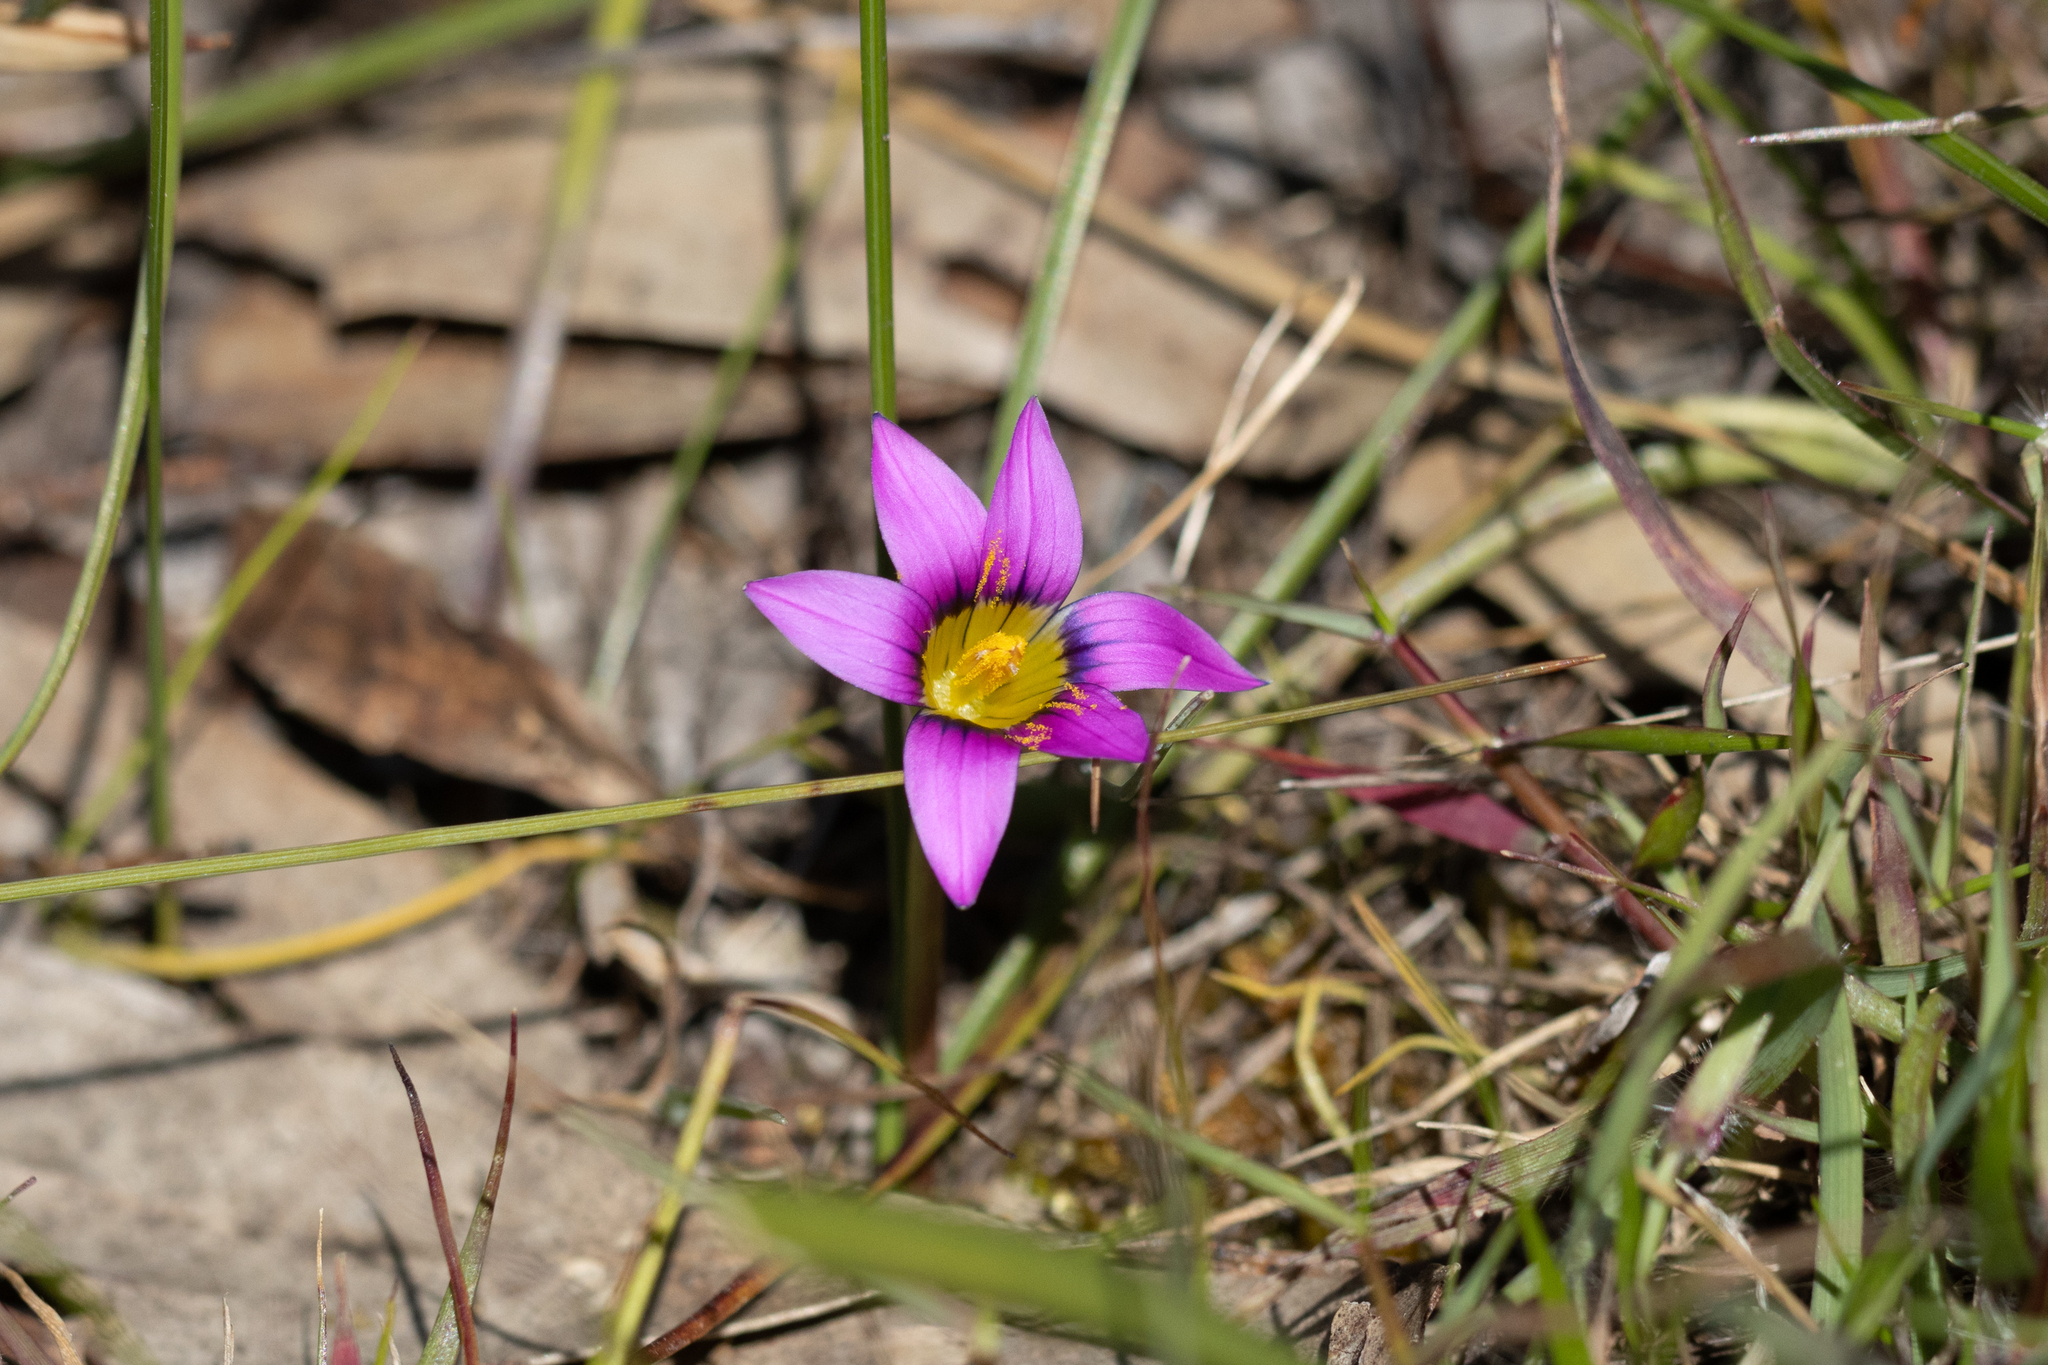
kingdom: Plantae
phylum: Tracheophyta
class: Liliopsida
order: Asparagales
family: Iridaceae
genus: Romulea
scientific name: Romulea rosea
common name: Oniongrass
